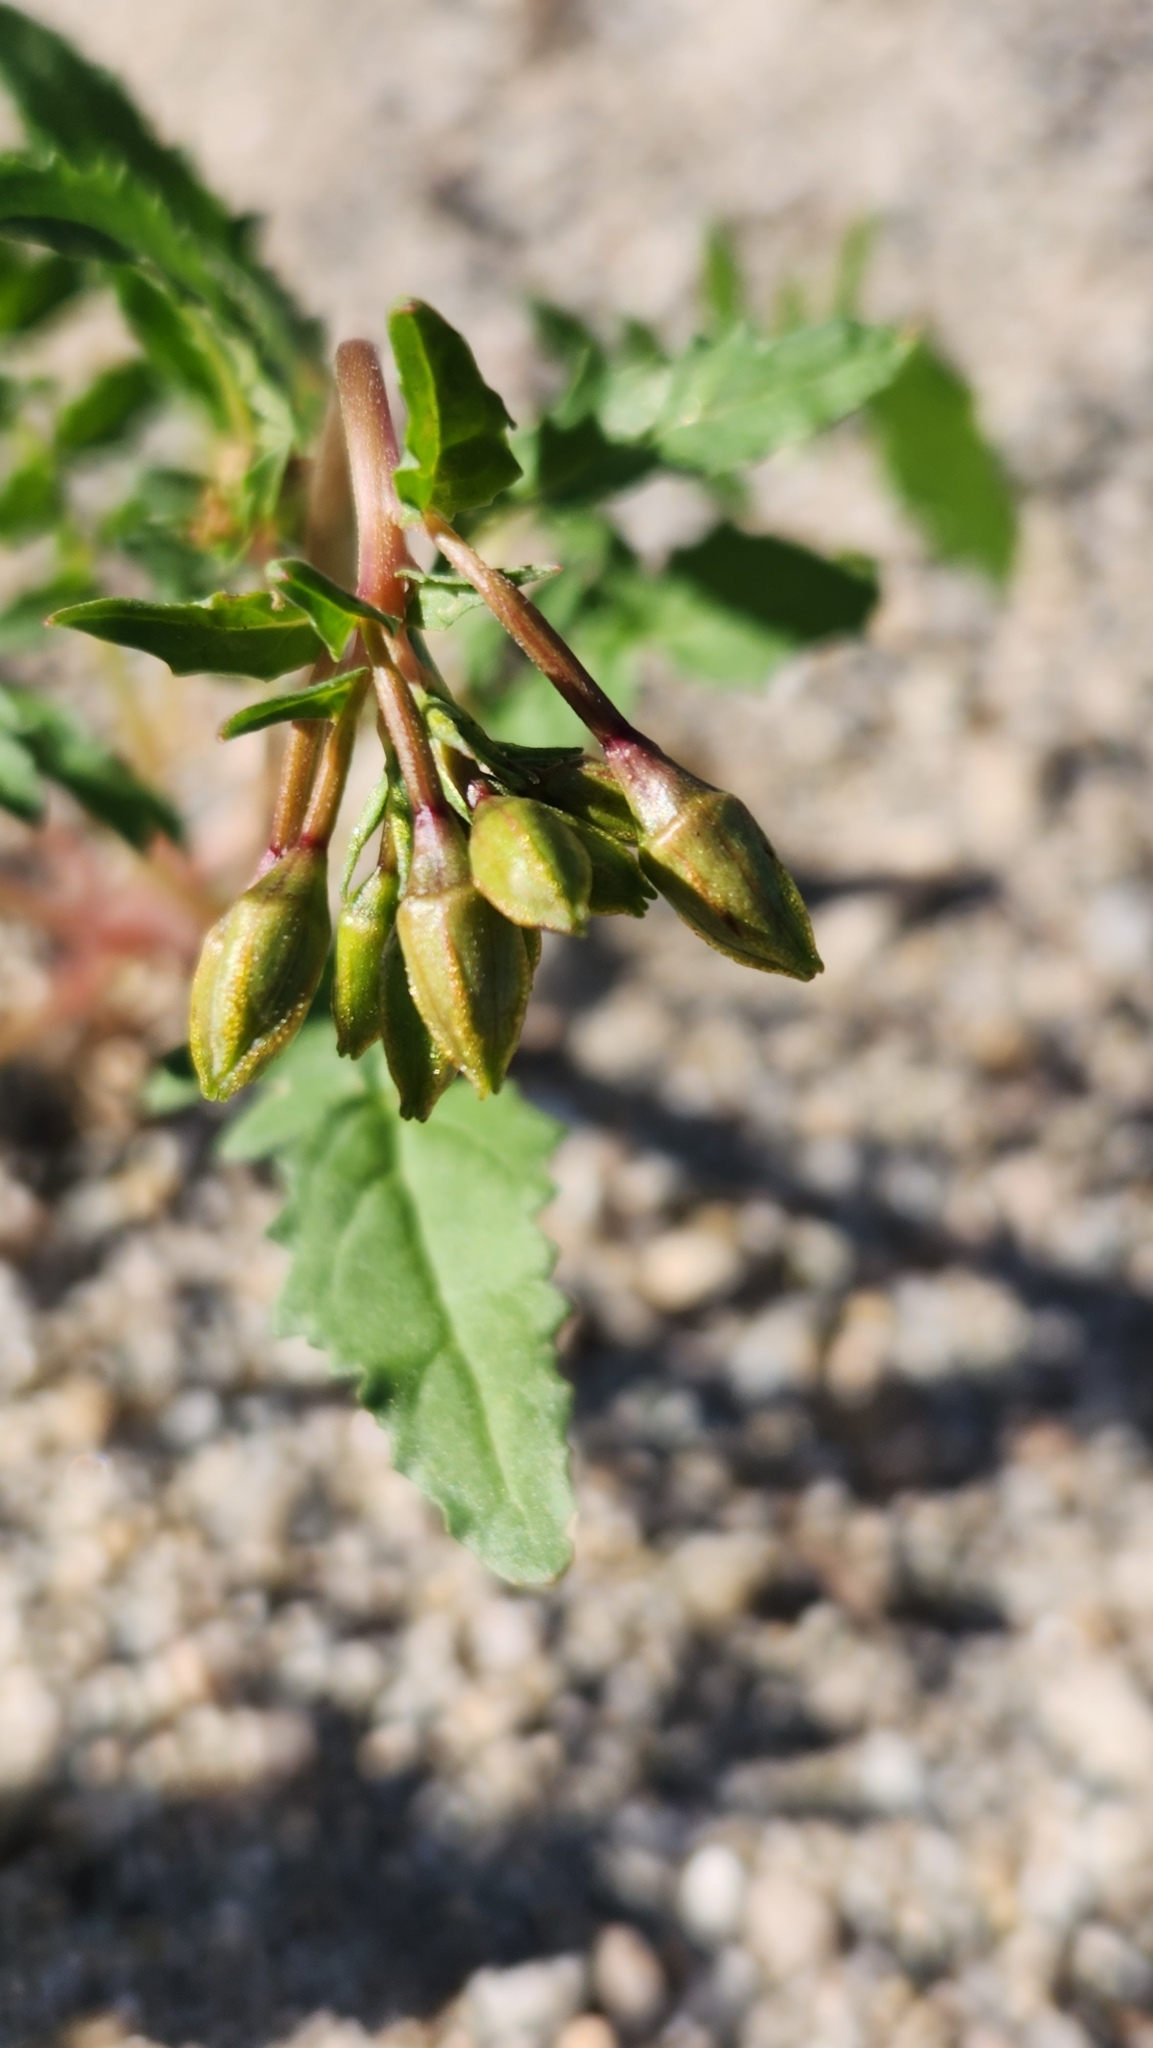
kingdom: Plantae
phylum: Tracheophyta
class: Magnoliopsida
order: Myrtales
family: Onagraceae
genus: Chylismia
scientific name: Chylismia claviformis
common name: Browneyes
